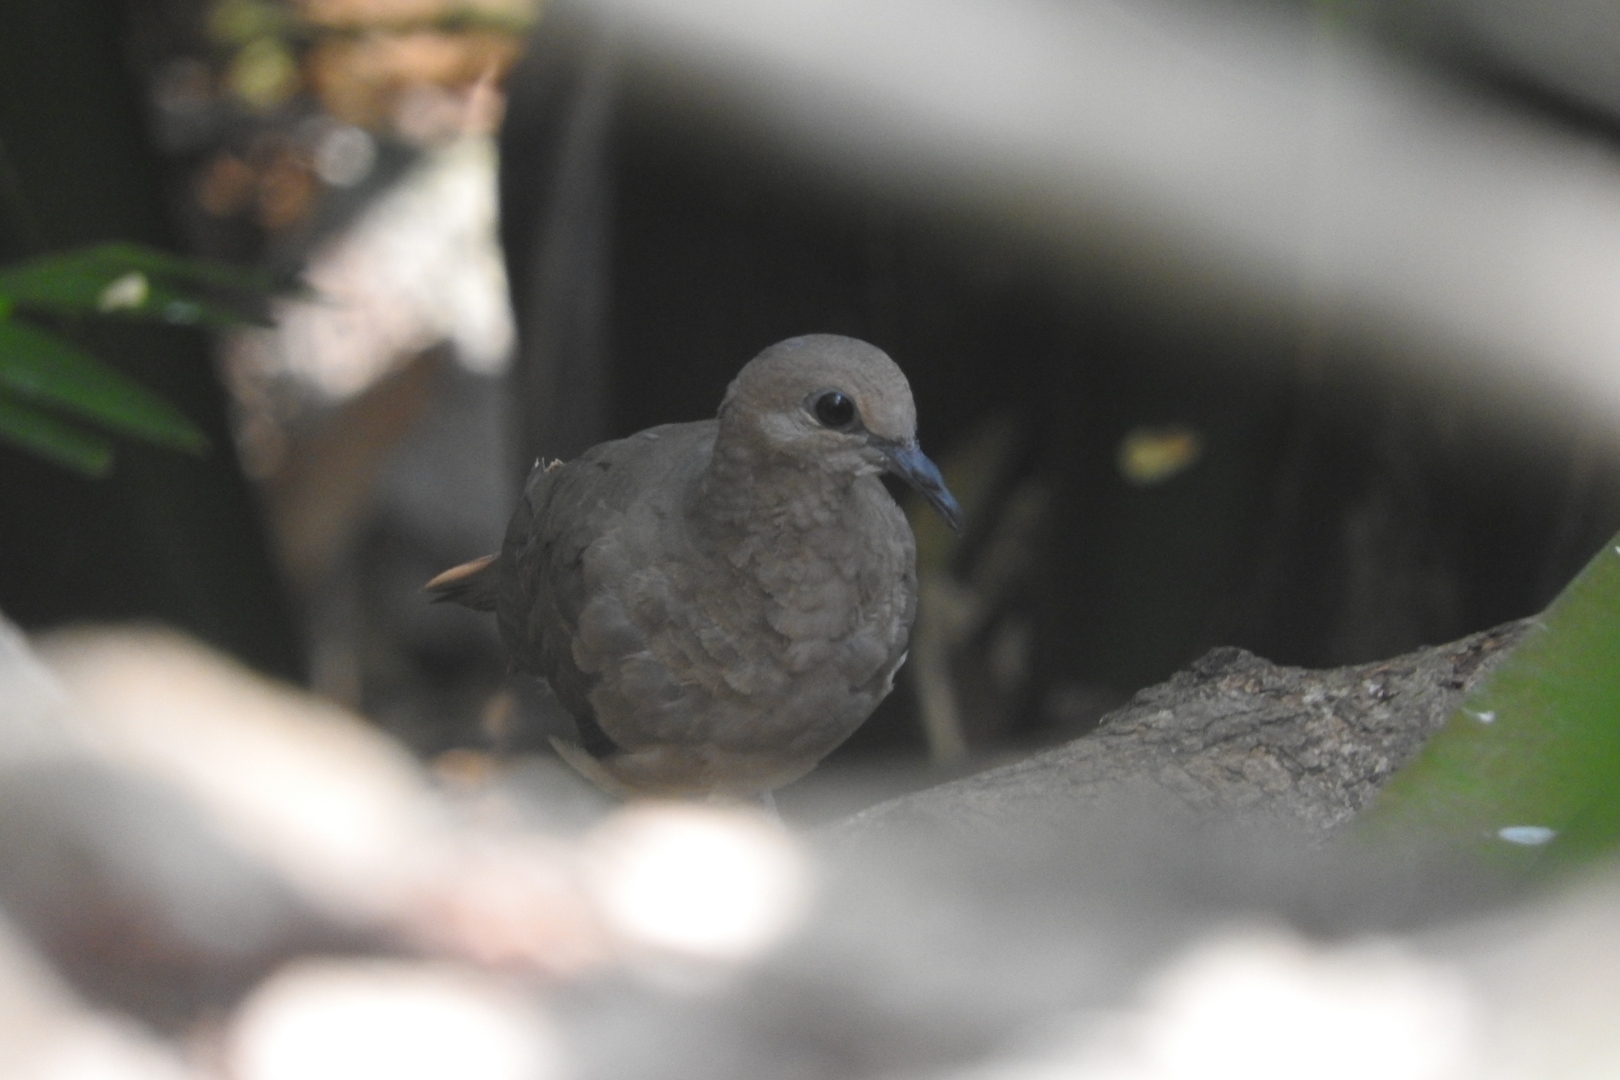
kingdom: Animalia
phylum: Chordata
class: Aves
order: Columbiformes
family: Columbidae
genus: Leptotila
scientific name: Leptotila verreauxi
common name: White-tipped dove
